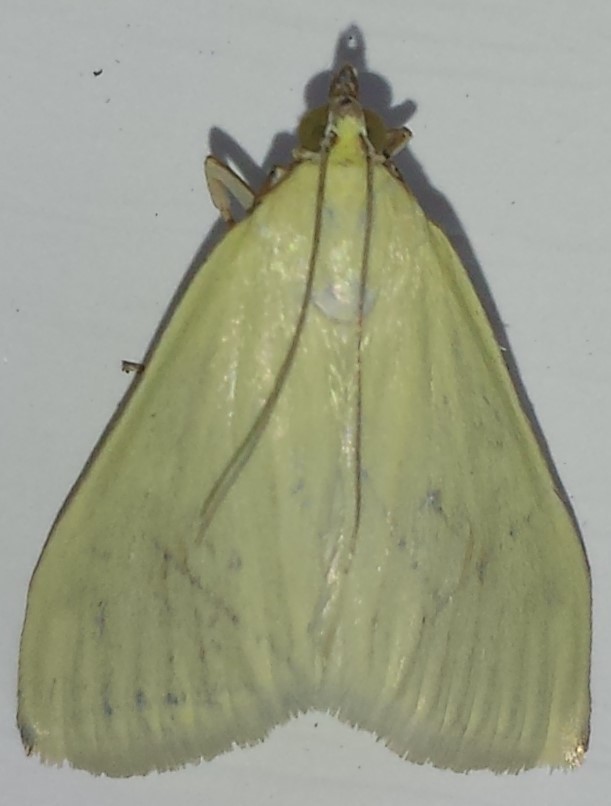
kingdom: Animalia
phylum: Arthropoda
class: Insecta
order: Lepidoptera
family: Crambidae
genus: Sitochroa
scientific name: Sitochroa palealis
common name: Greenish-yellow sitochroa moth
